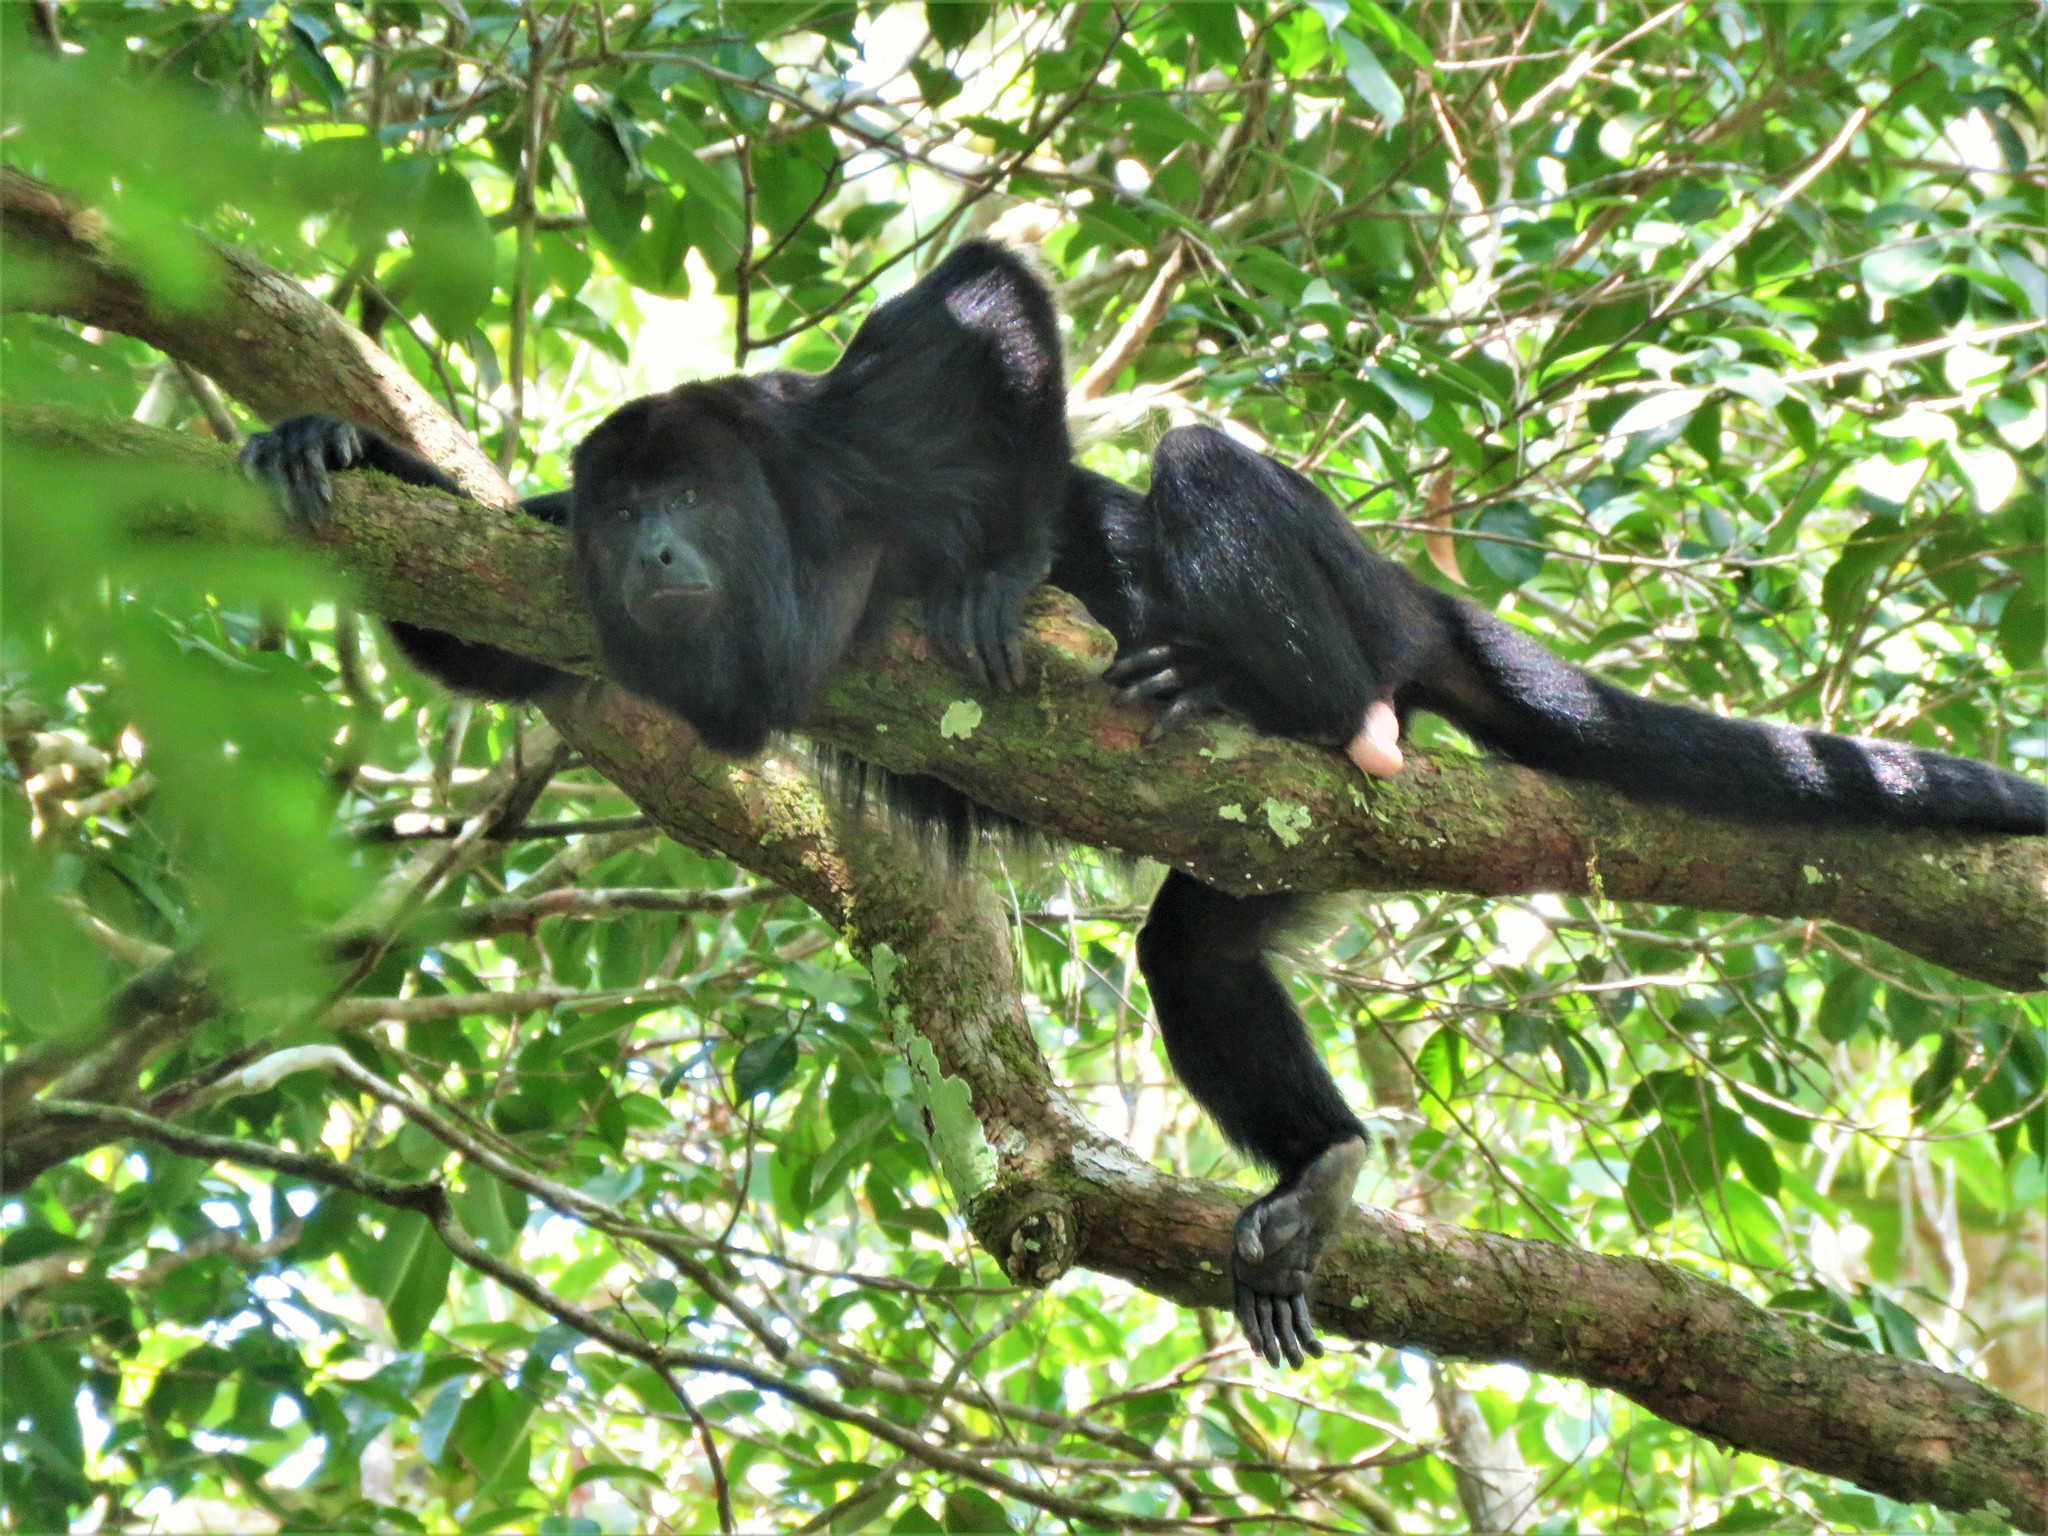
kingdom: Animalia
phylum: Chordata
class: Mammalia
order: Primates
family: Atelidae
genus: Alouatta
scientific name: Alouatta pigra
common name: Guatemalan black howler
